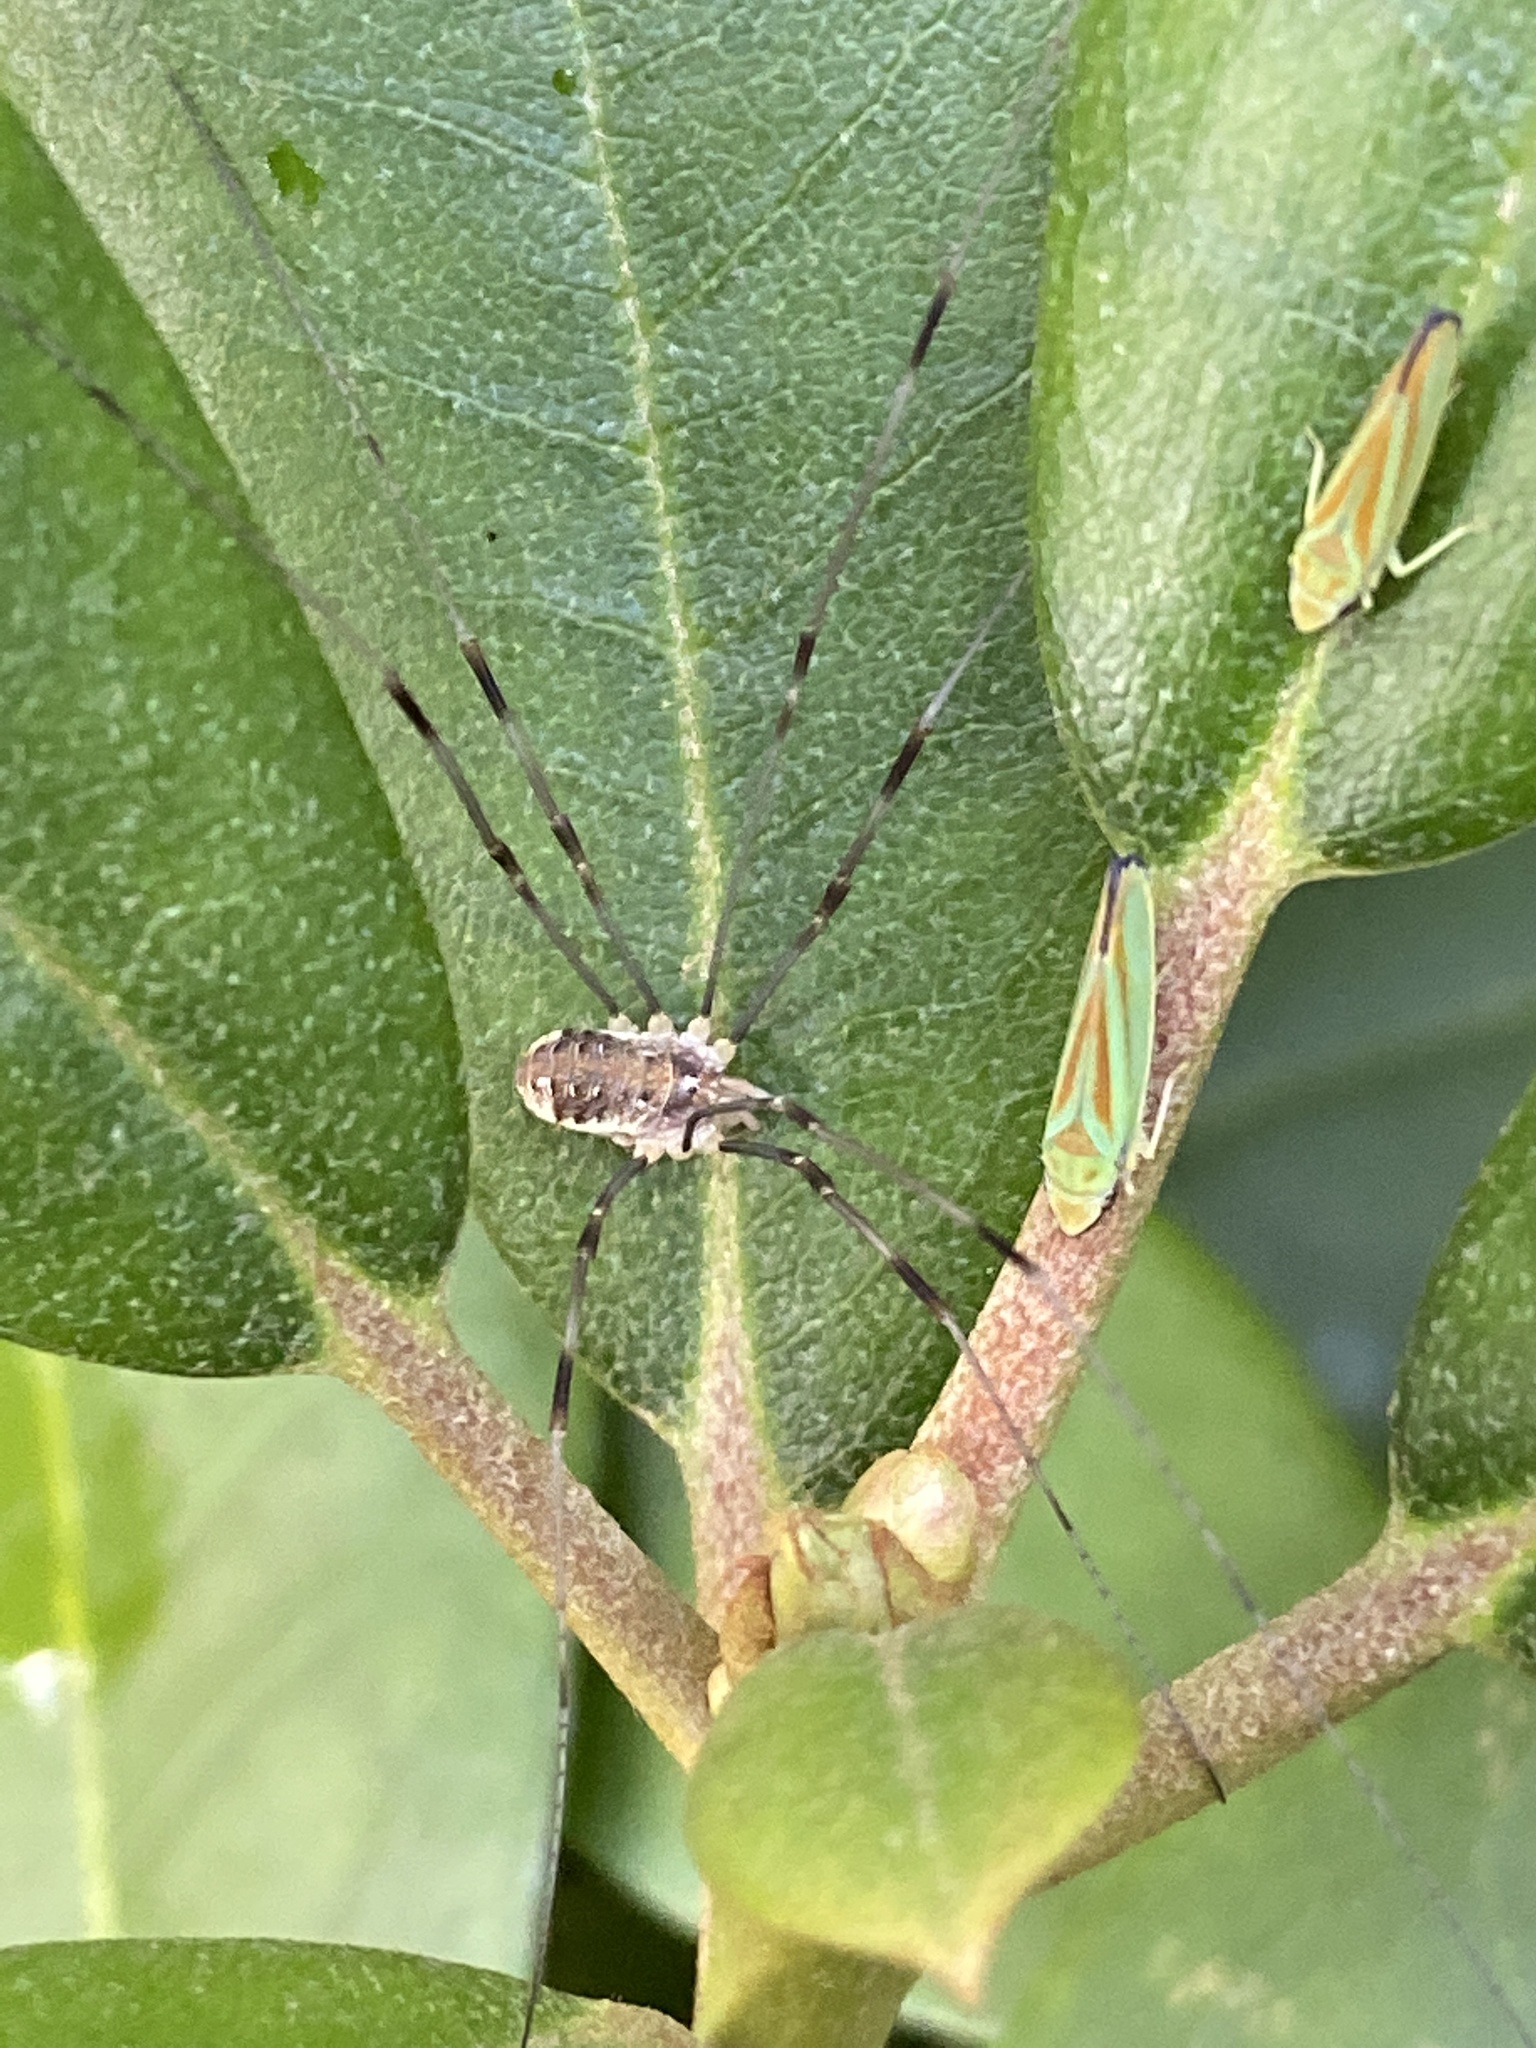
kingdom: Animalia
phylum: Arthropoda
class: Arachnida
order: Opiliones
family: Phalangiidae
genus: Opilio
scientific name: Opilio canestrinii
